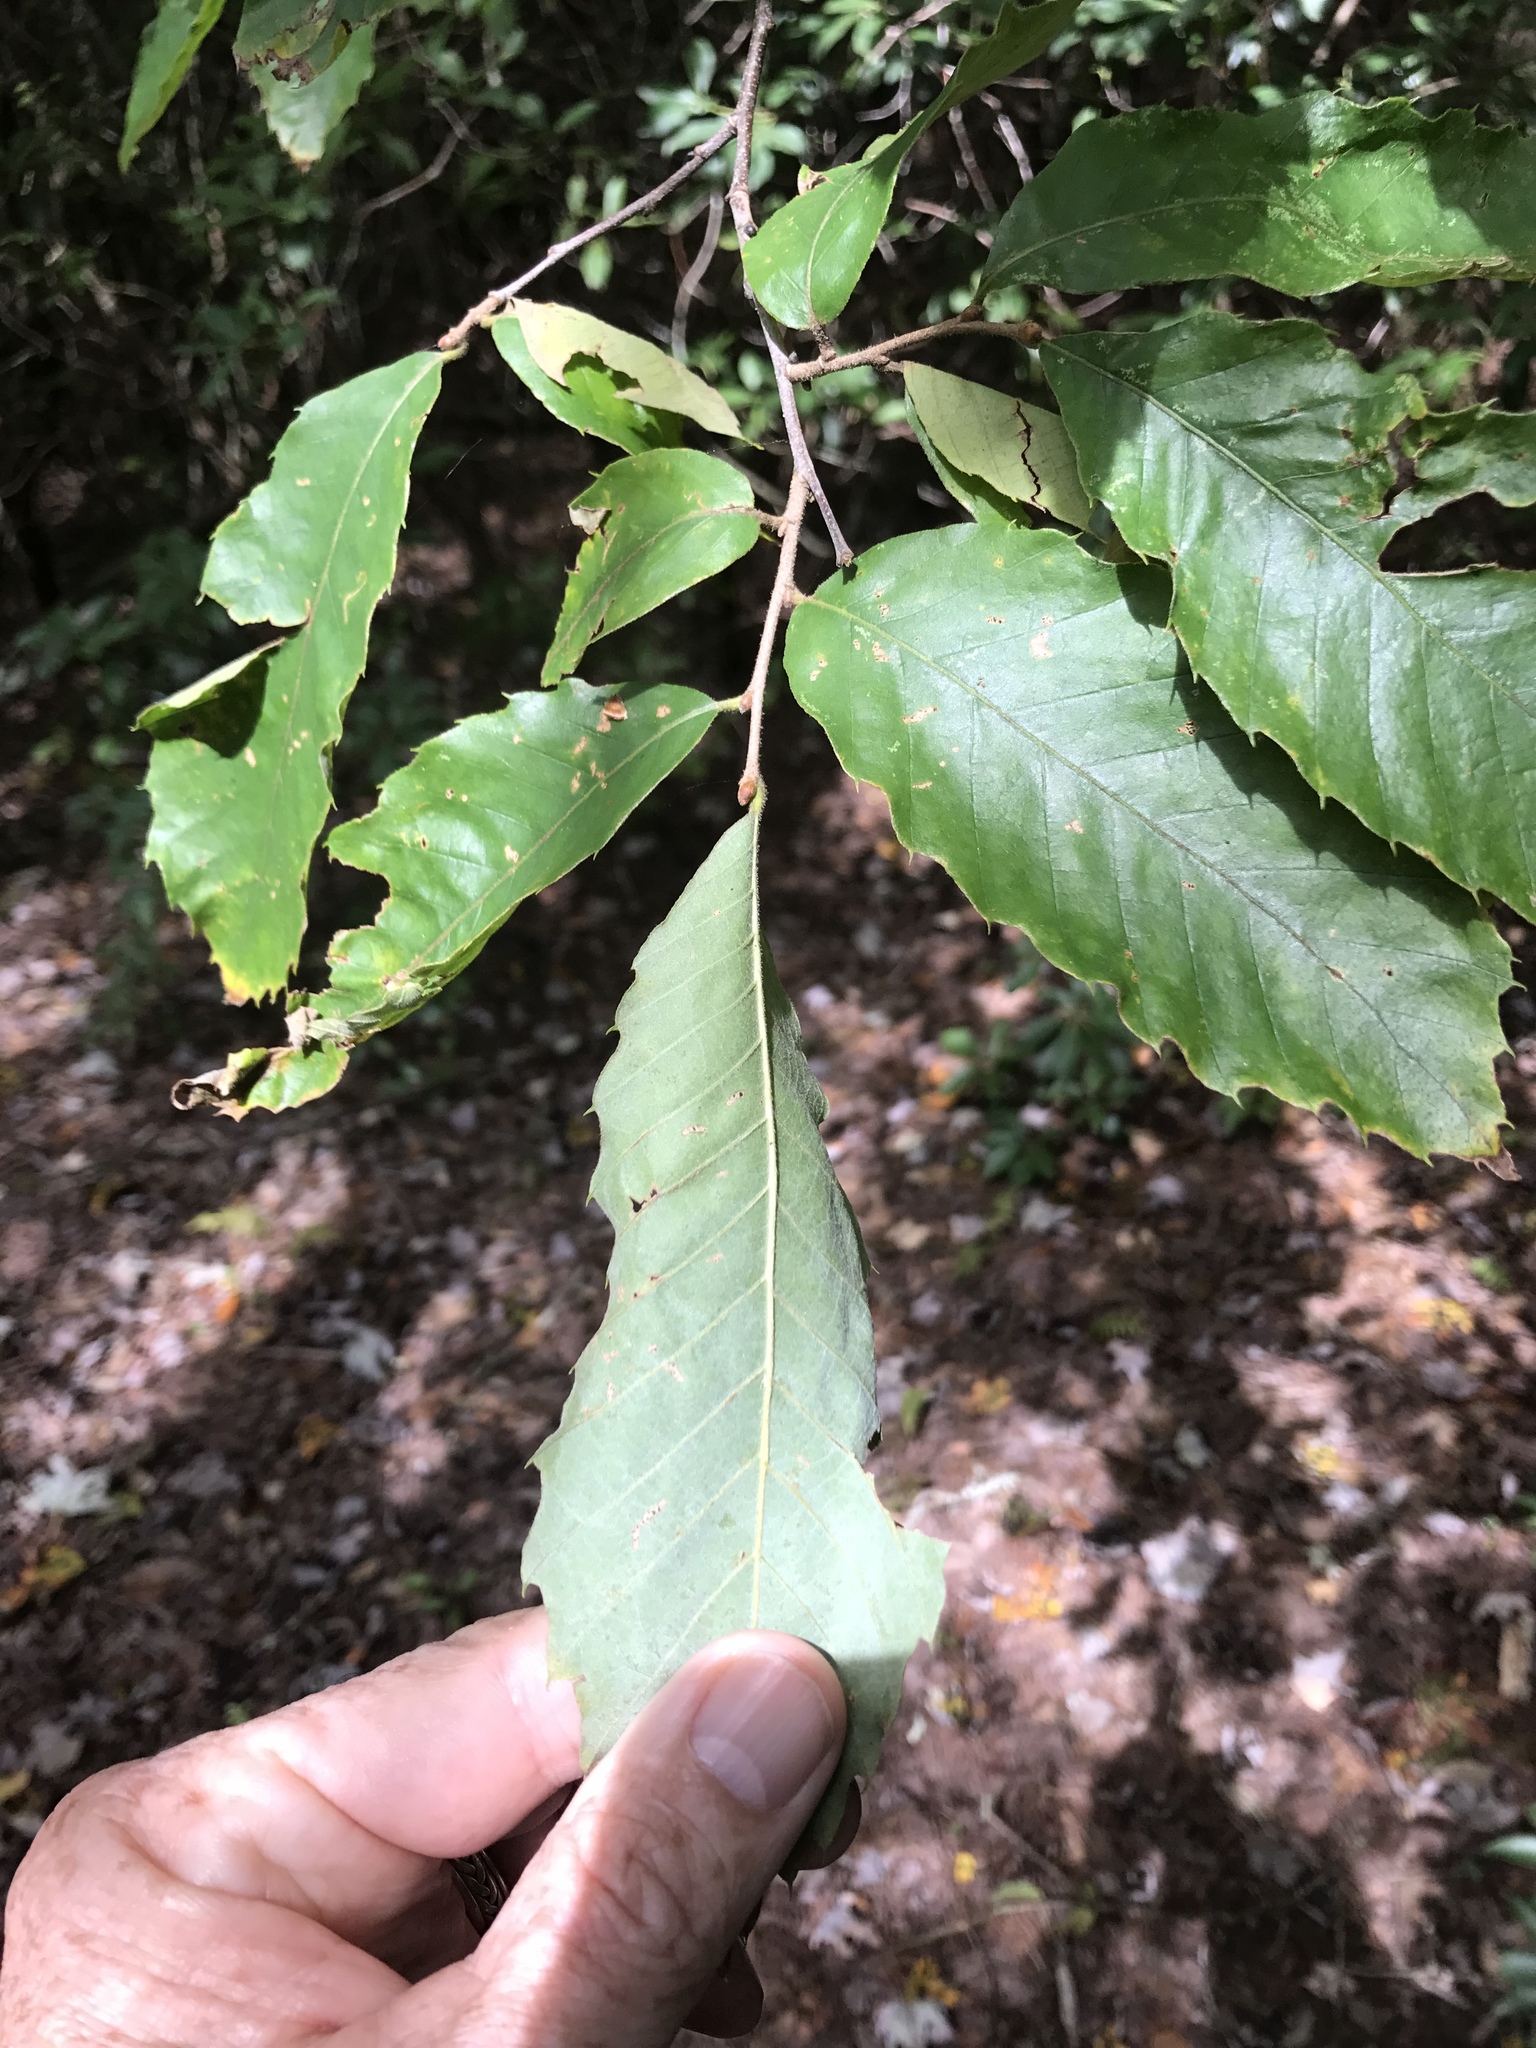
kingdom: Plantae
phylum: Tracheophyta
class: Magnoliopsida
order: Fagales
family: Fagaceae
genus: Castanea
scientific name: Castanea pumila
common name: Chinkapin
